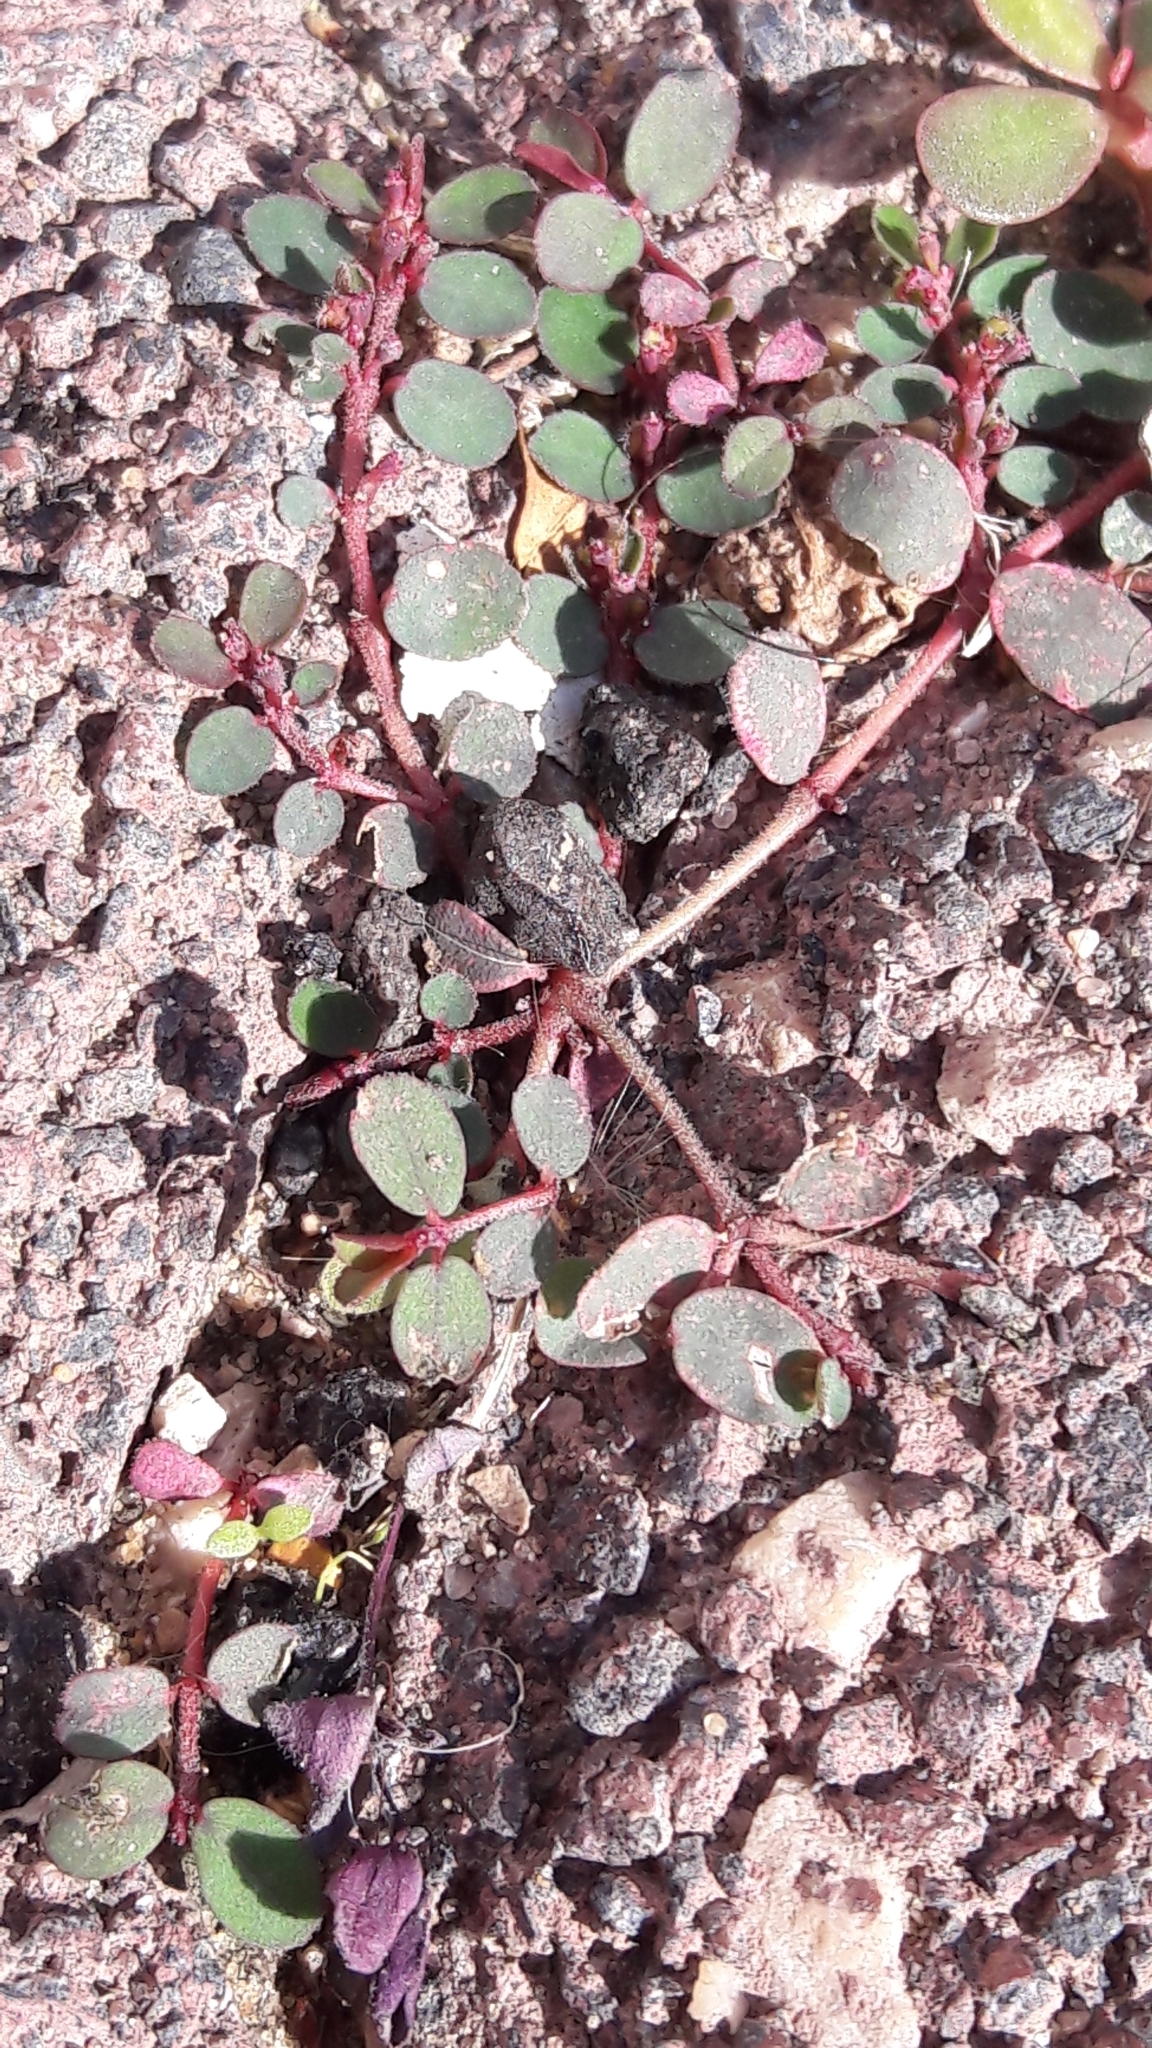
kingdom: Plantae
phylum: Tracheophyta
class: Magnoliopsida
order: Malpighiales
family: Euphorbiaceae
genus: Euphorbia
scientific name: Euphorbia prostrata
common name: Prostrate sandmat
